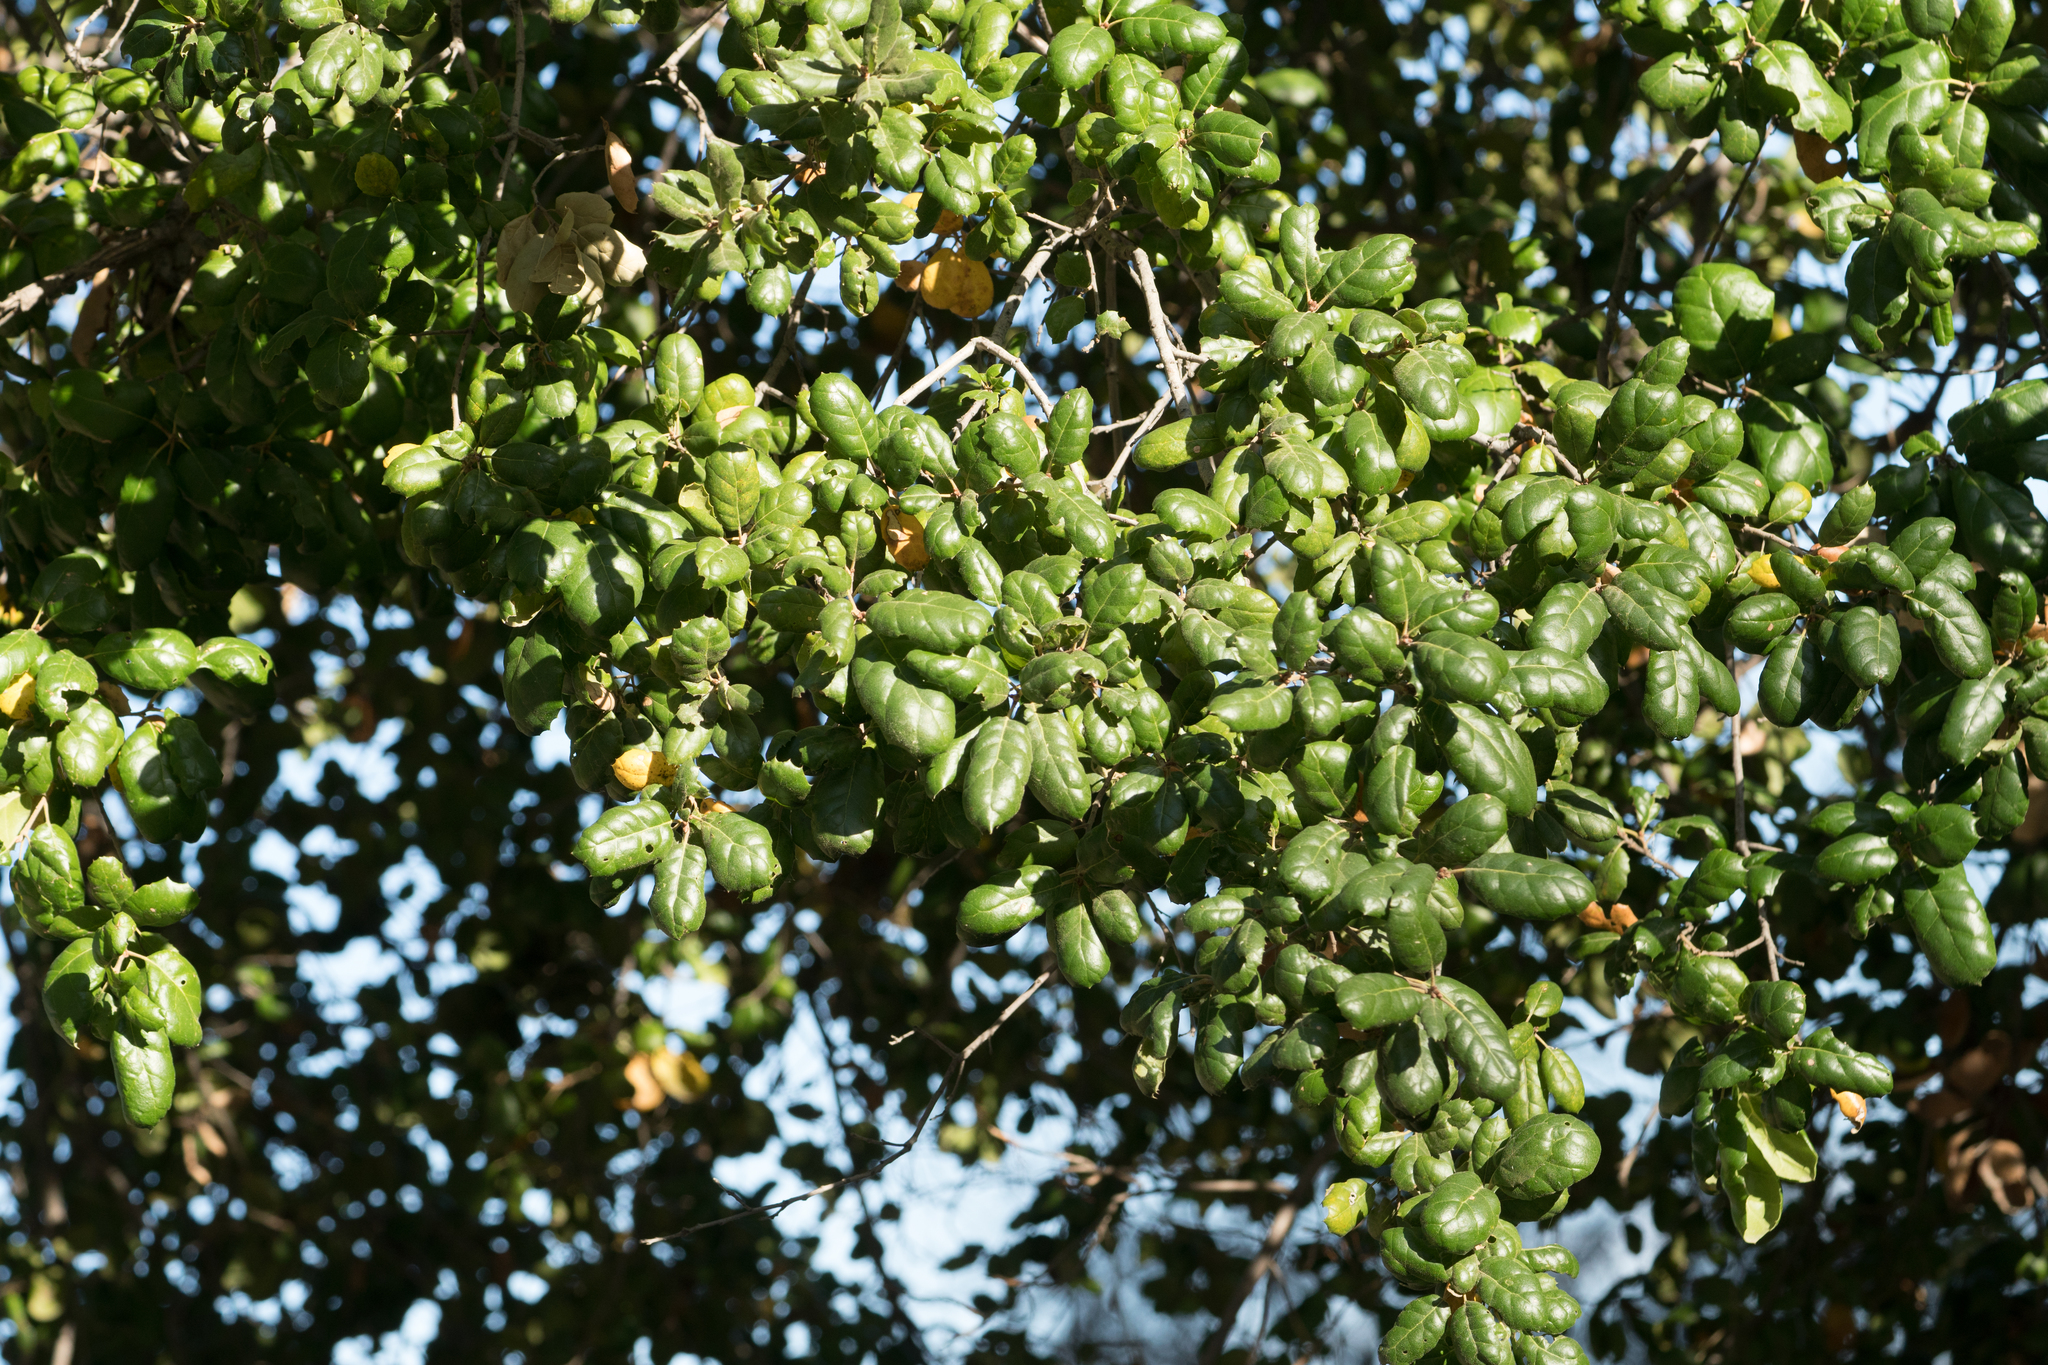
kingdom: Plantae
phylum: Tracheophyta
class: Magnoliopsida
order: Fagales
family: Fagaceae
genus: Quercus
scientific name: Quercus agrifolia
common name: California live oak
